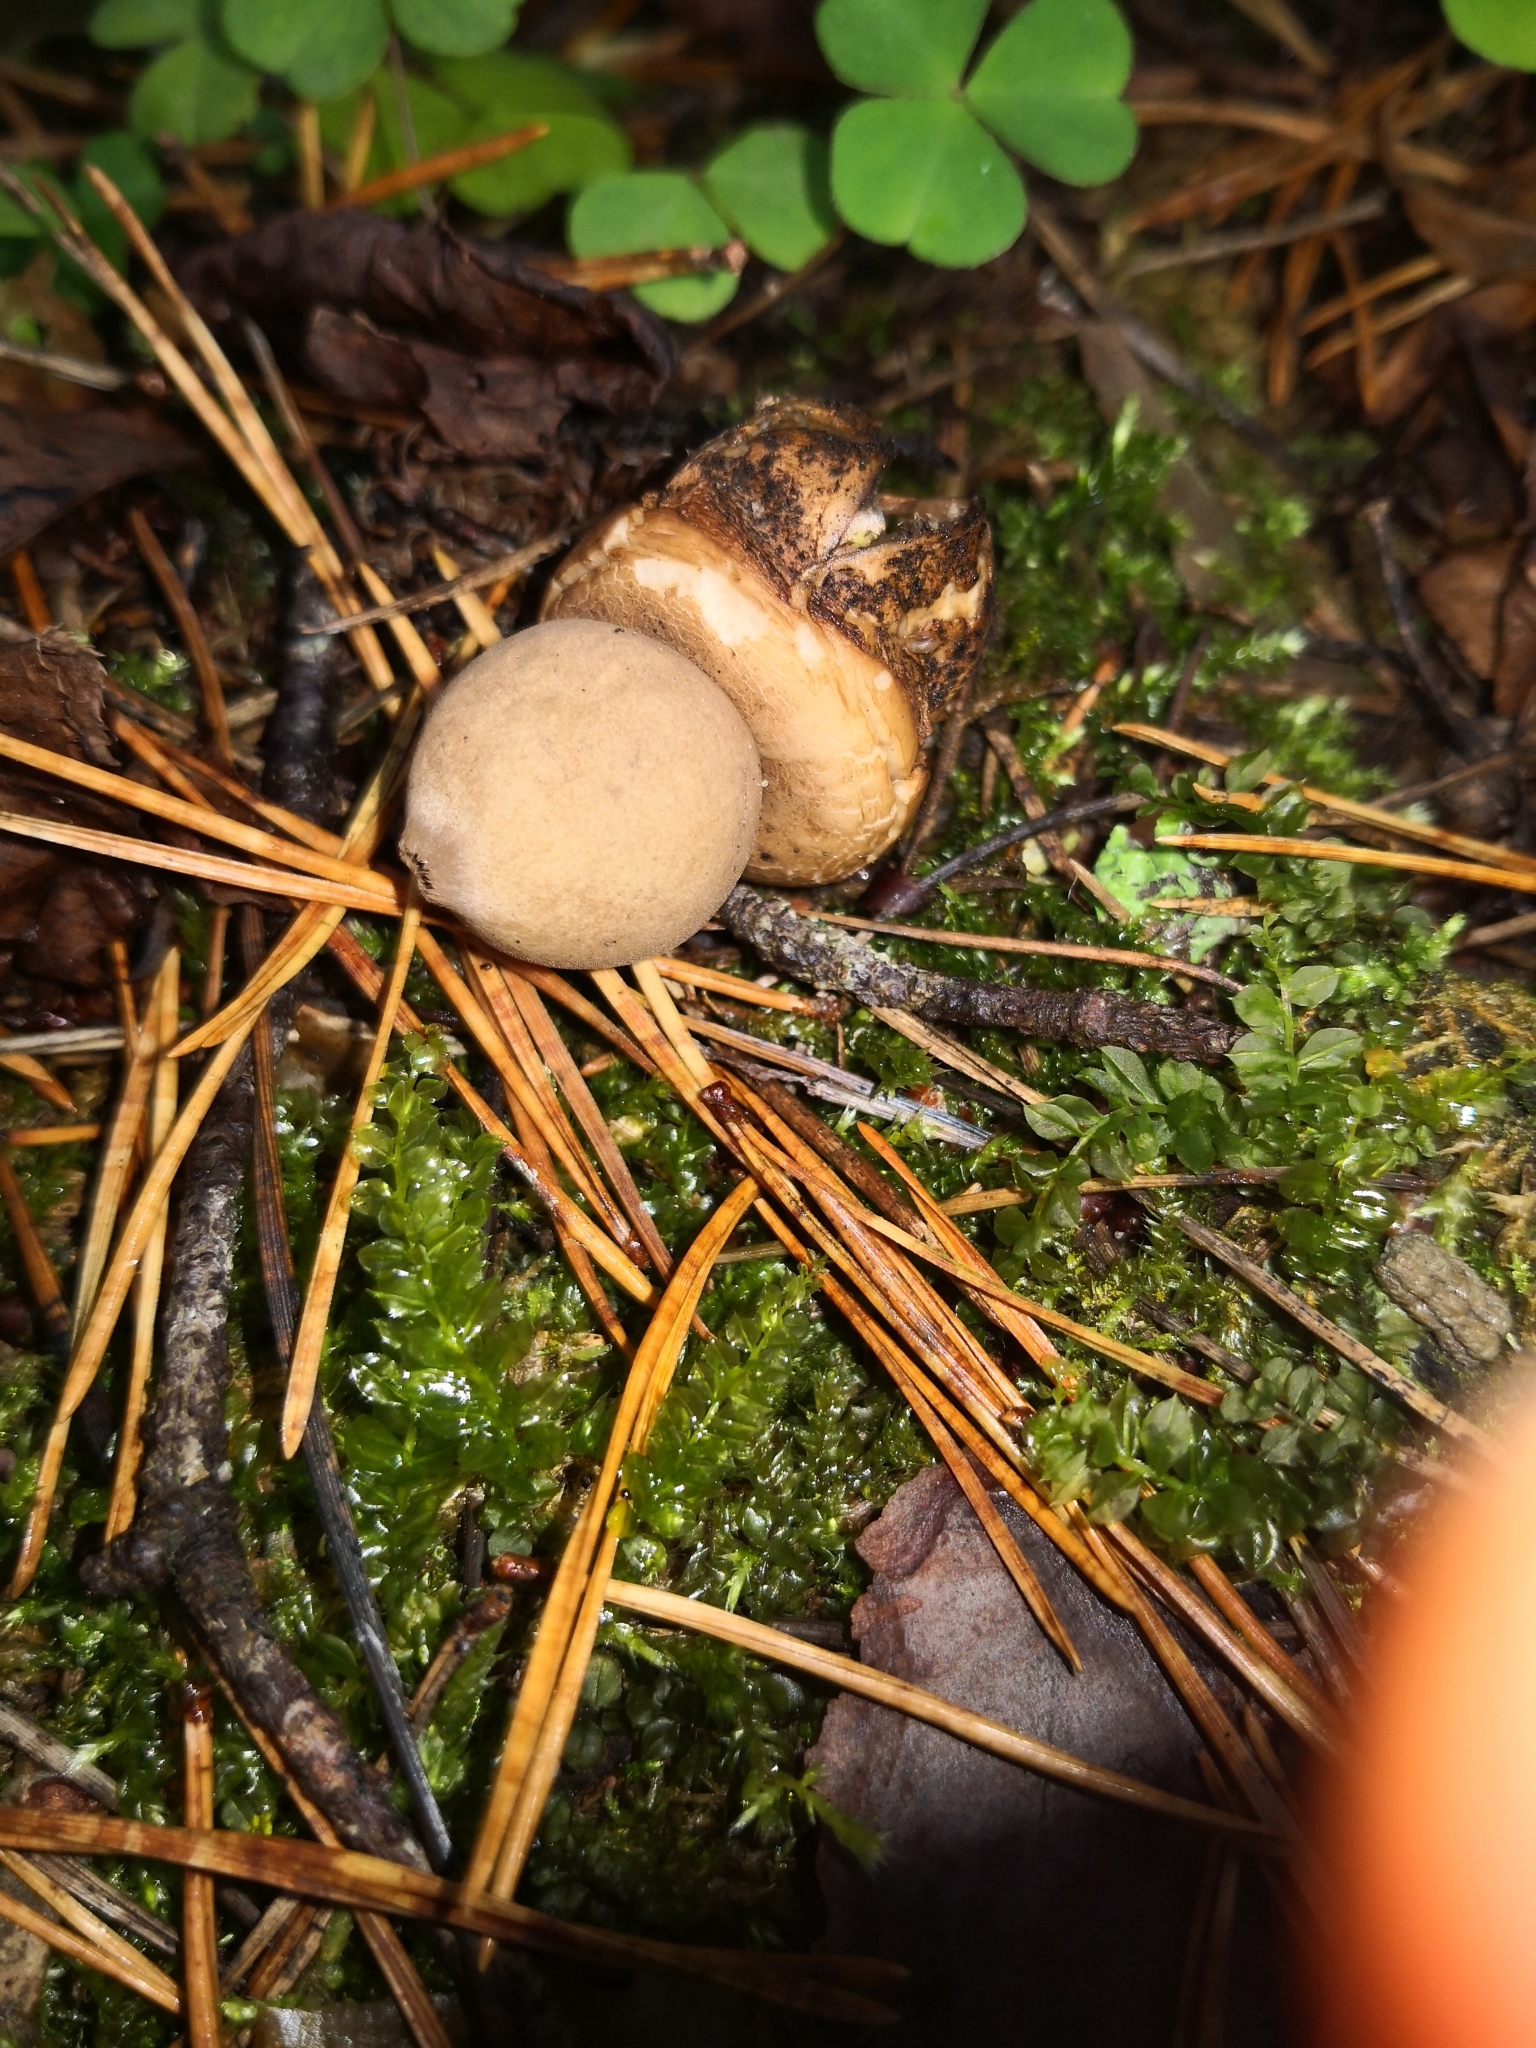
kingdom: Fungi
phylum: Basidiomycota
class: Agaricomycetes
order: Geastrales
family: Geastraceae
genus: Geastrum
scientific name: Geastrum fimbriatum
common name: Sessile earthstar
